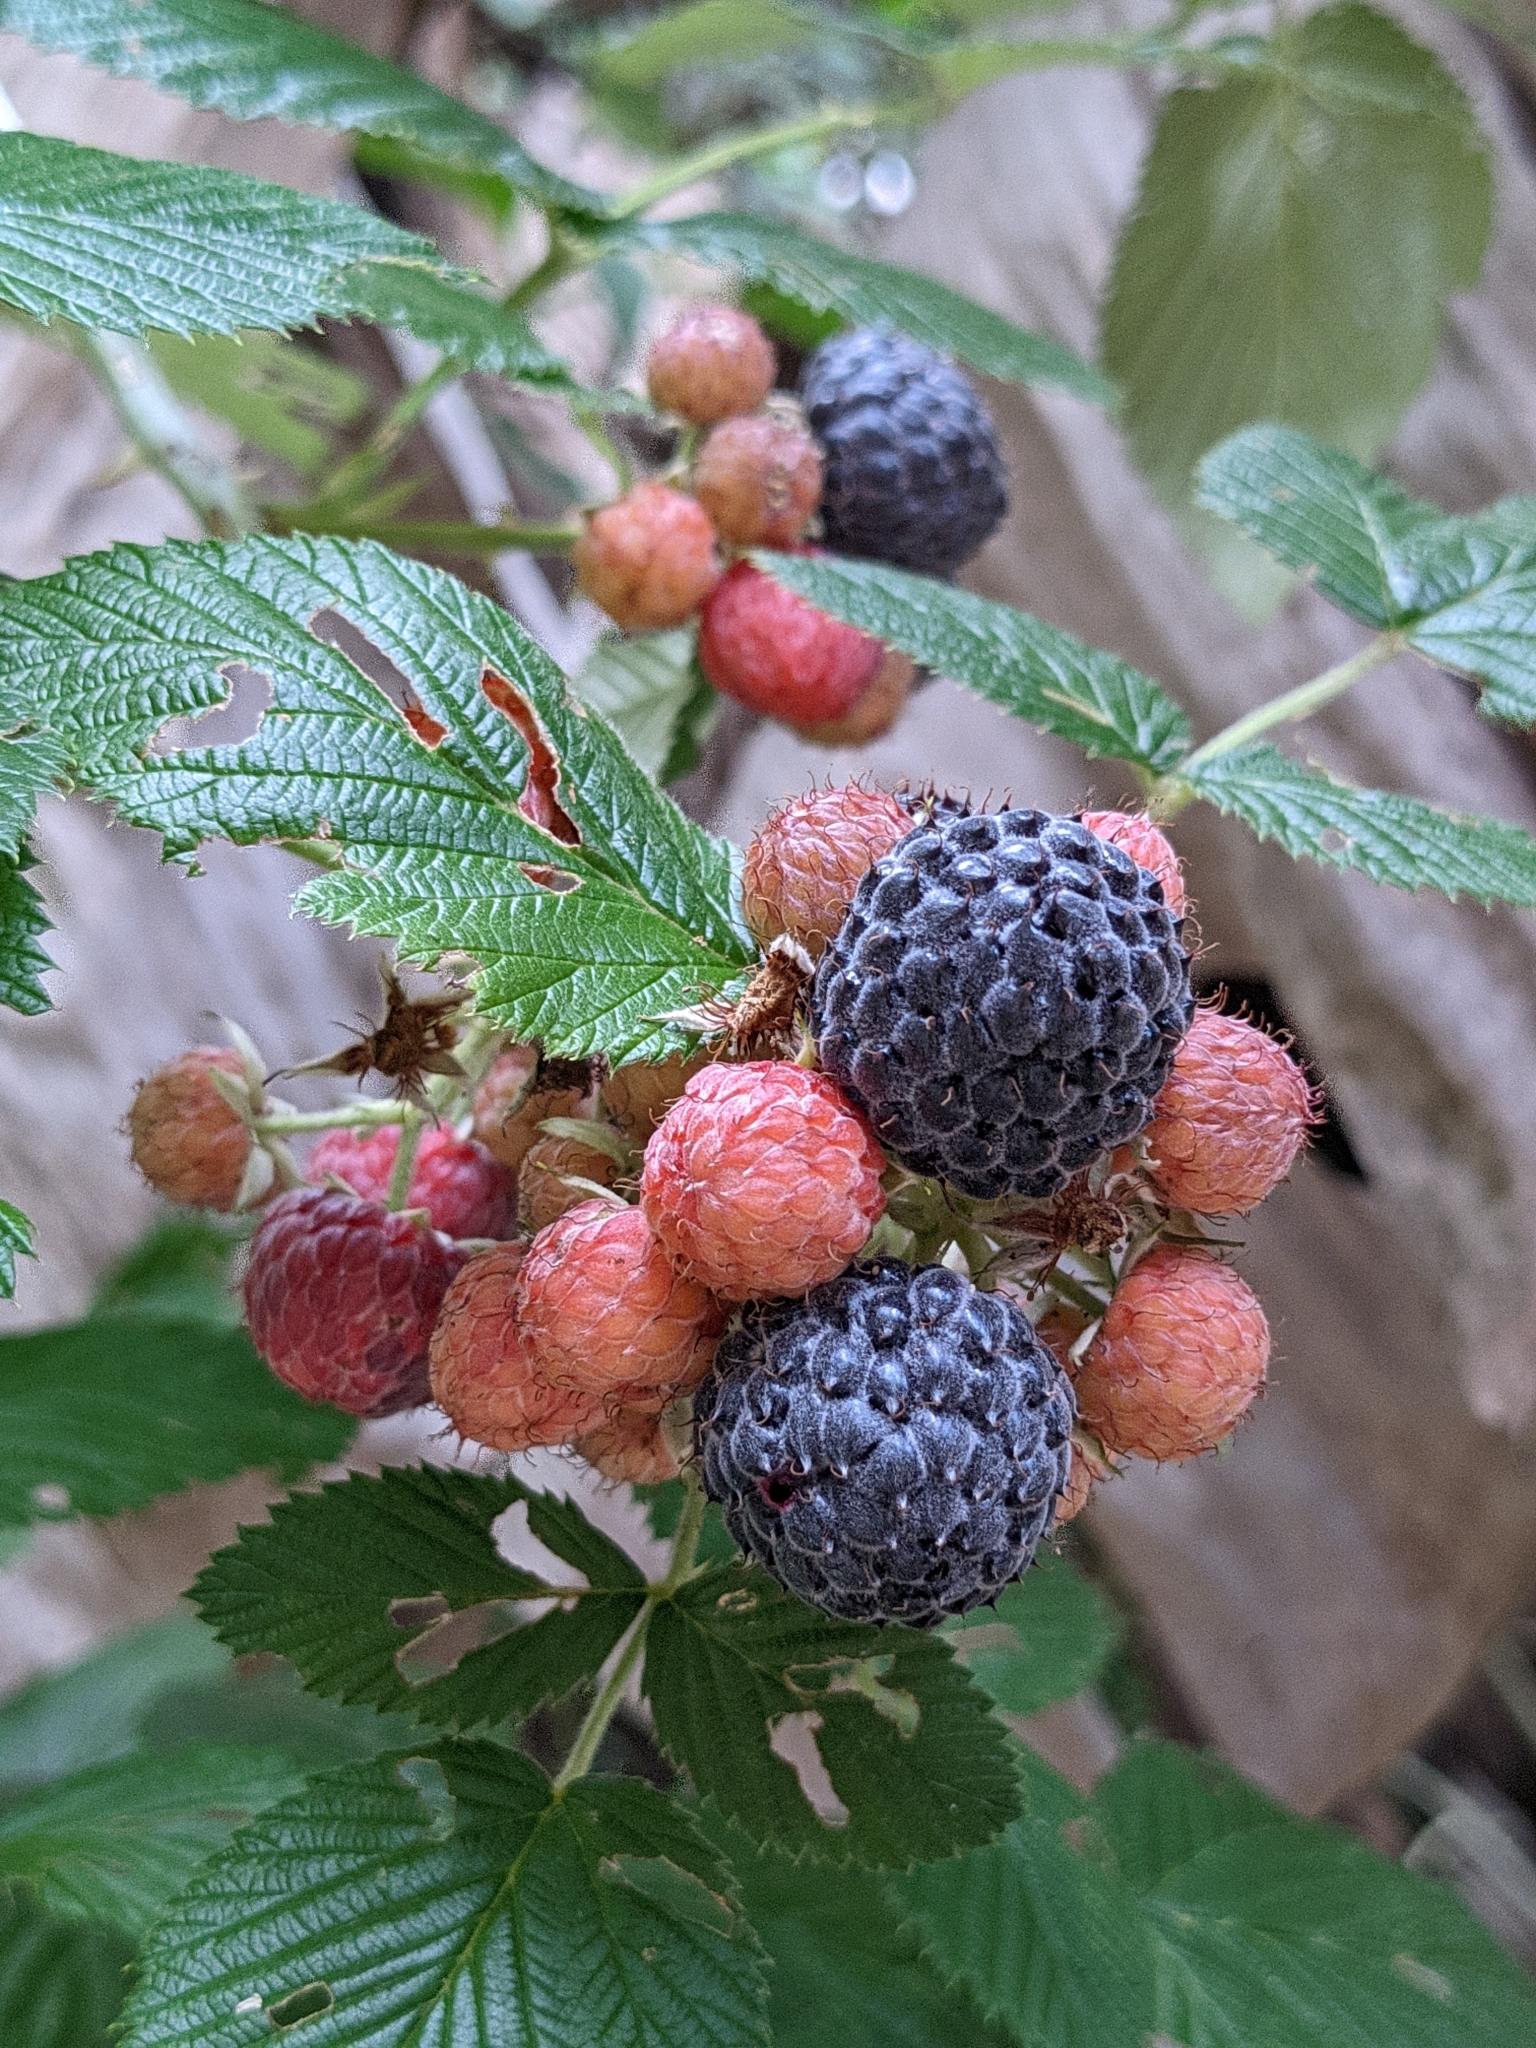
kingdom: Plantae
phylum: Tracheophyta
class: Magnoliopsida
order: Rosales
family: Rosaceae
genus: Rubus
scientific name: Rubus niveus
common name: Snowpeaks raspberry
